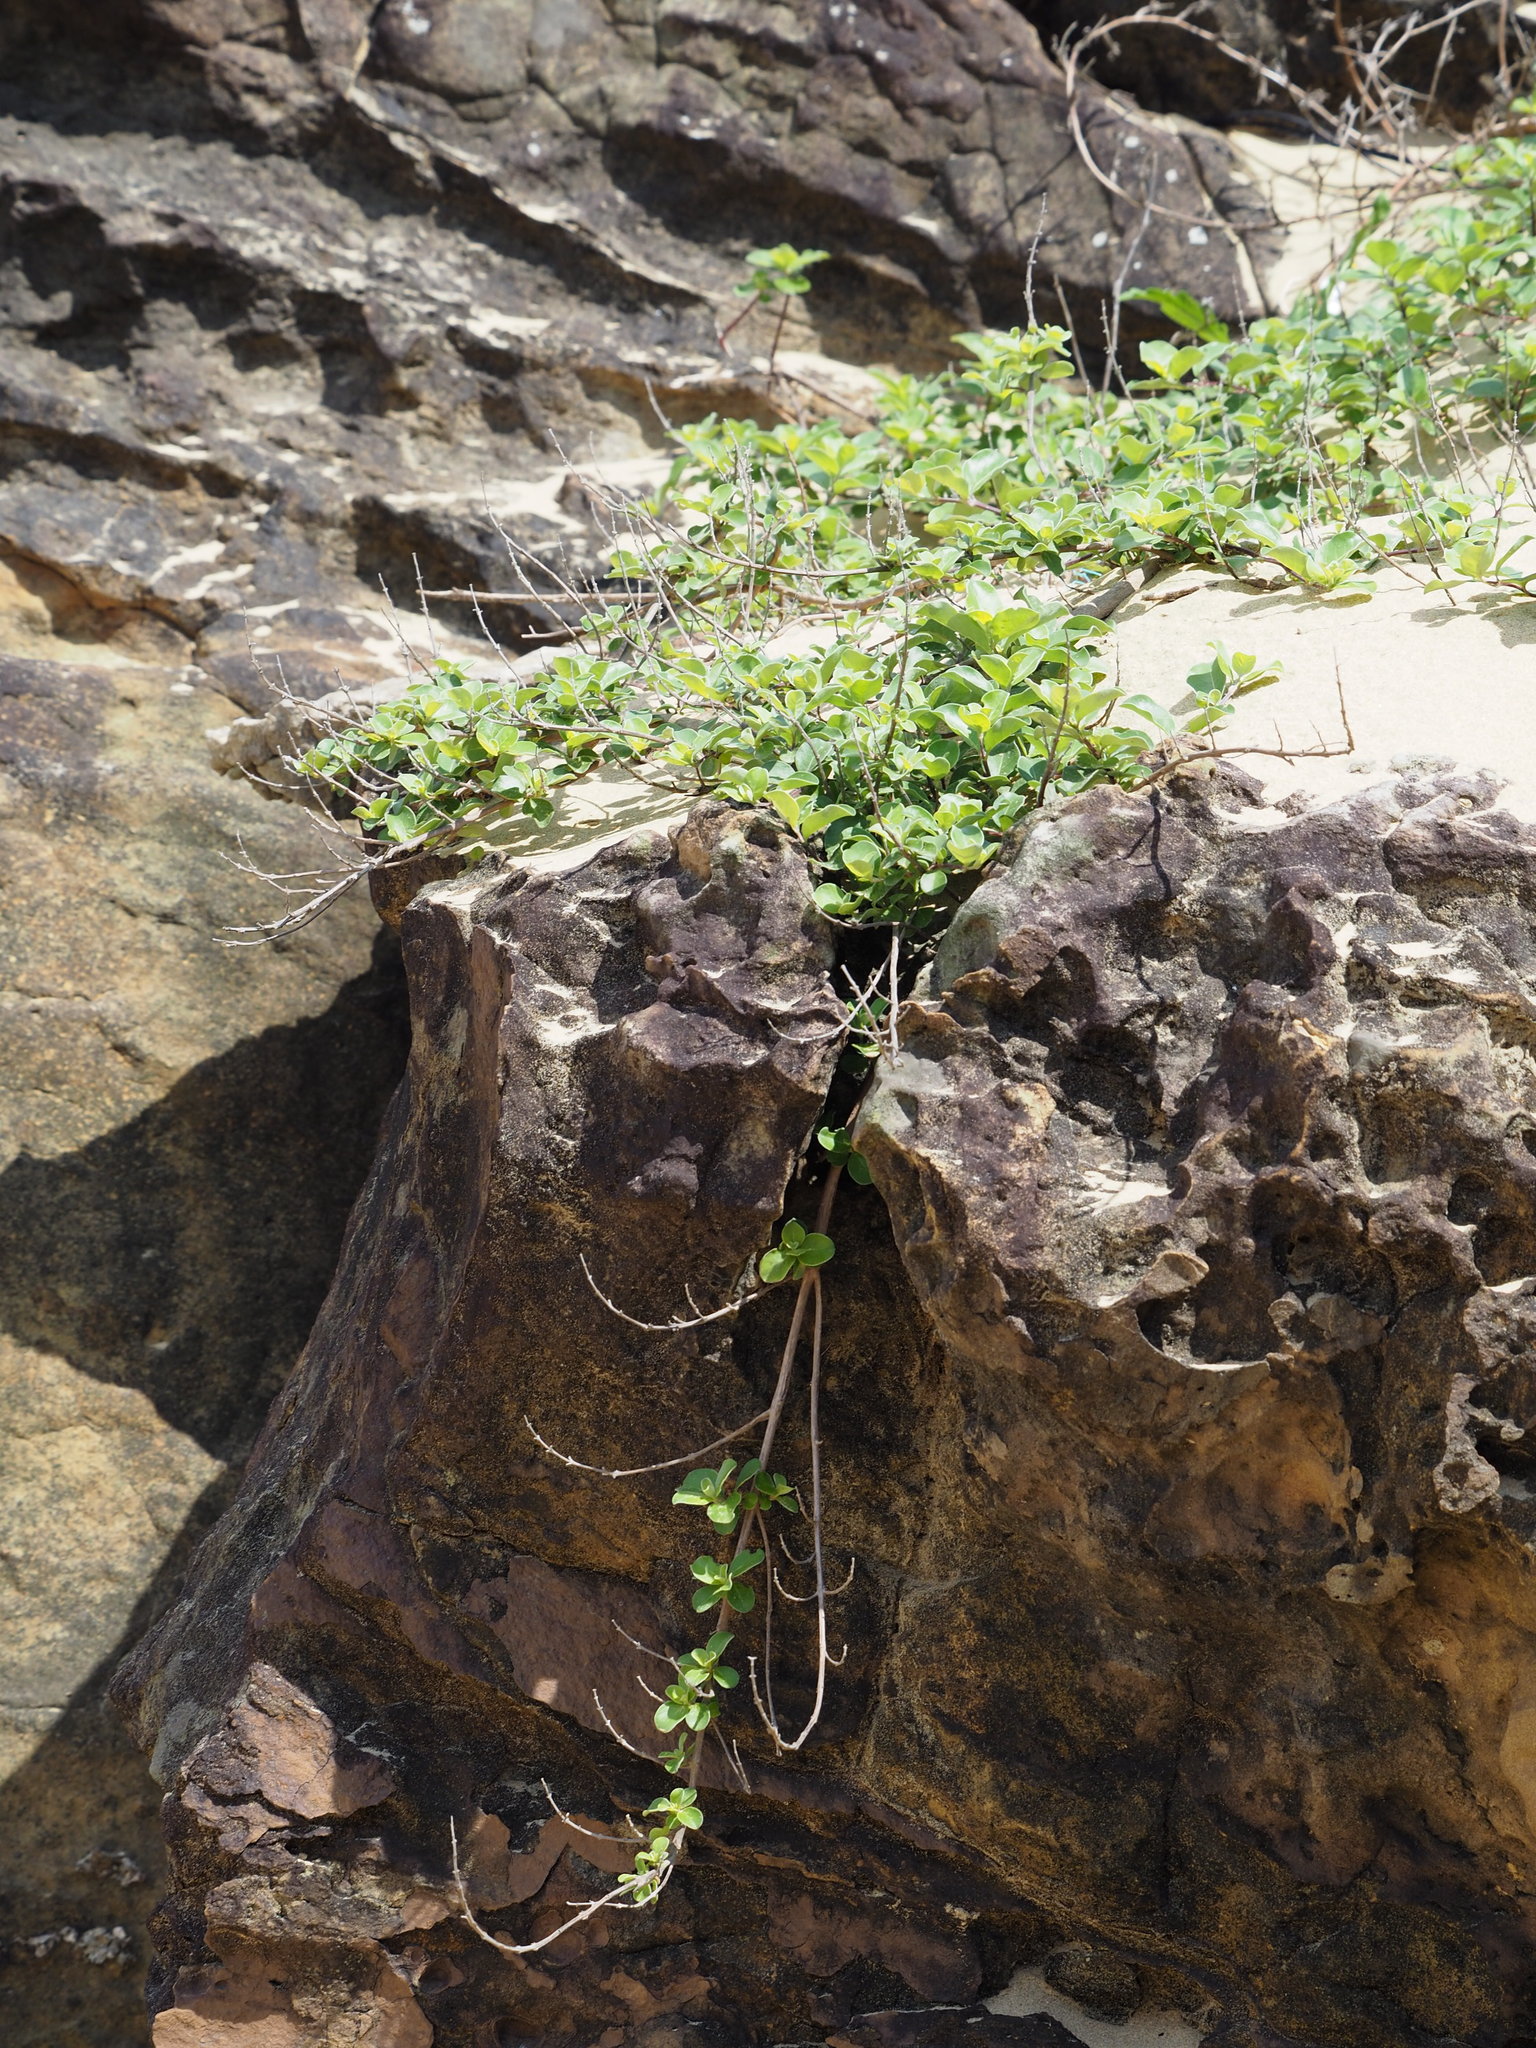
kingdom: Plantae
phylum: Tracheophyta
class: Magnoliopsida
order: Lamiales
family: Lamiaceae
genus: Vitex
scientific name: Vitex rotundifolia
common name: Beach vitex
